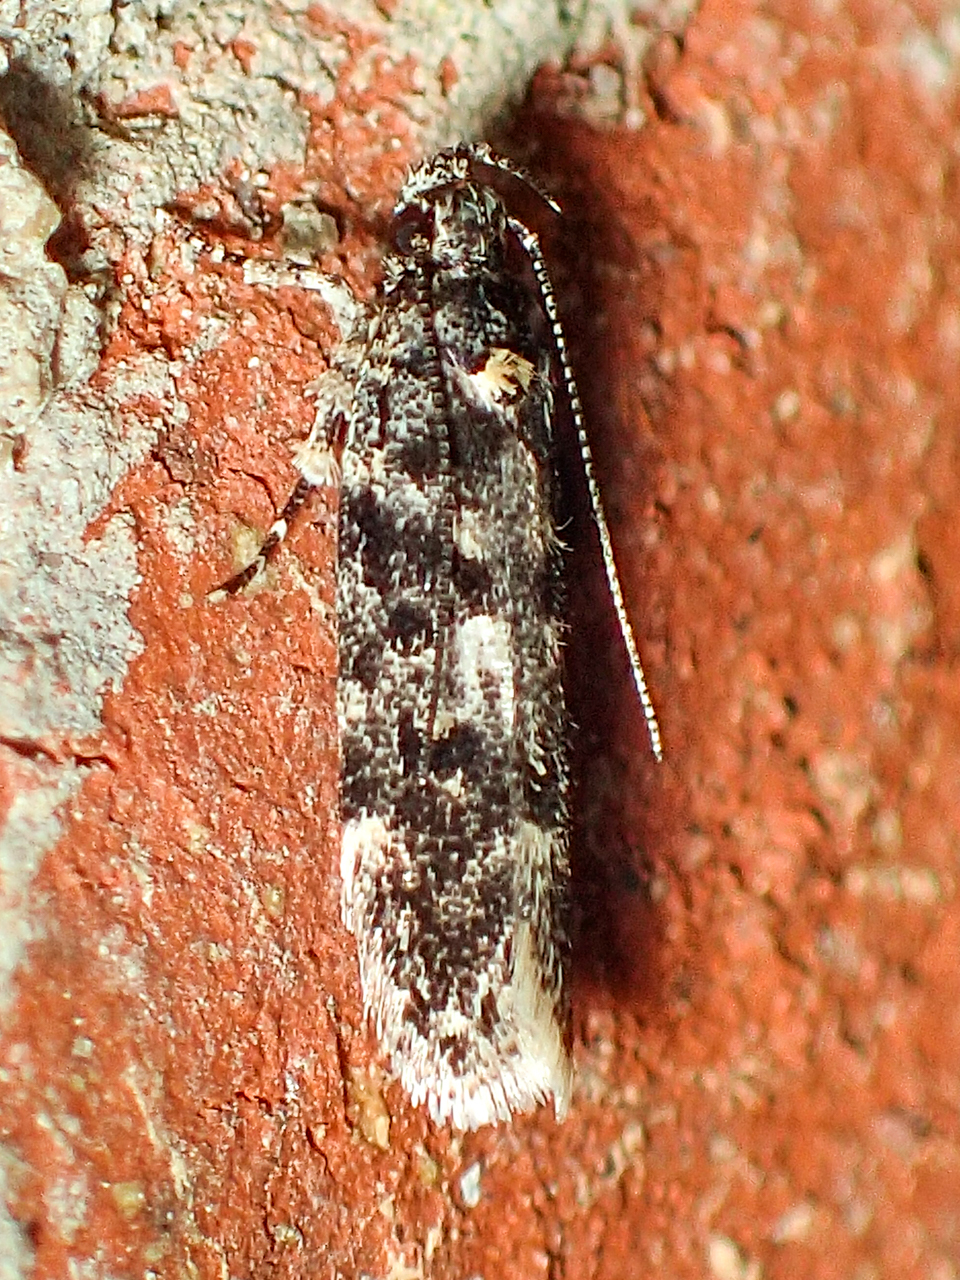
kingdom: Animalia
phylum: Arthropoda
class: Insecta
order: Lepidoptera
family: Gelechiidae
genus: Chionodes
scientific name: Chionodes fuscomaculella
